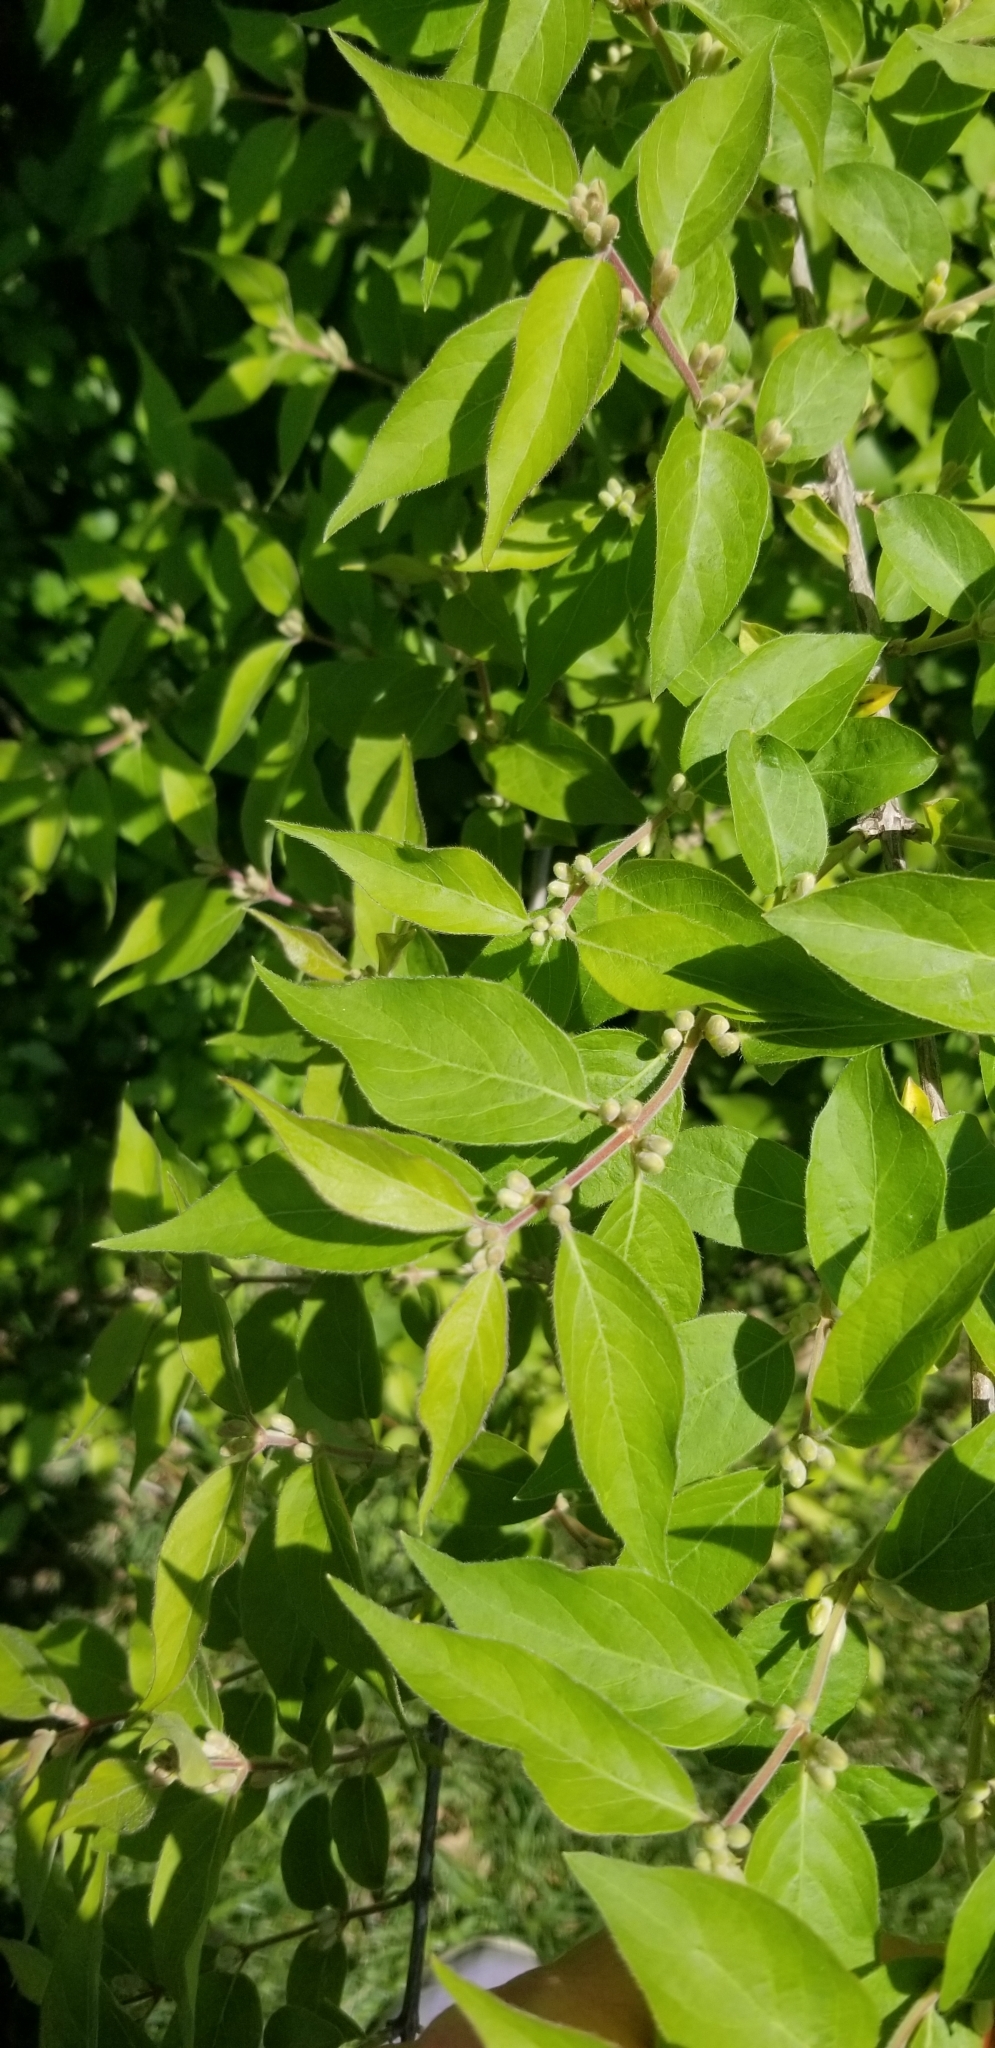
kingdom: Plantae
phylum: Tracheophyta
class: Magnoliopsida
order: Dipsacales
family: Caprifoliaceae
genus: Lonicera
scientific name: Lonicera maackii
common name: Amur honeysuckle
